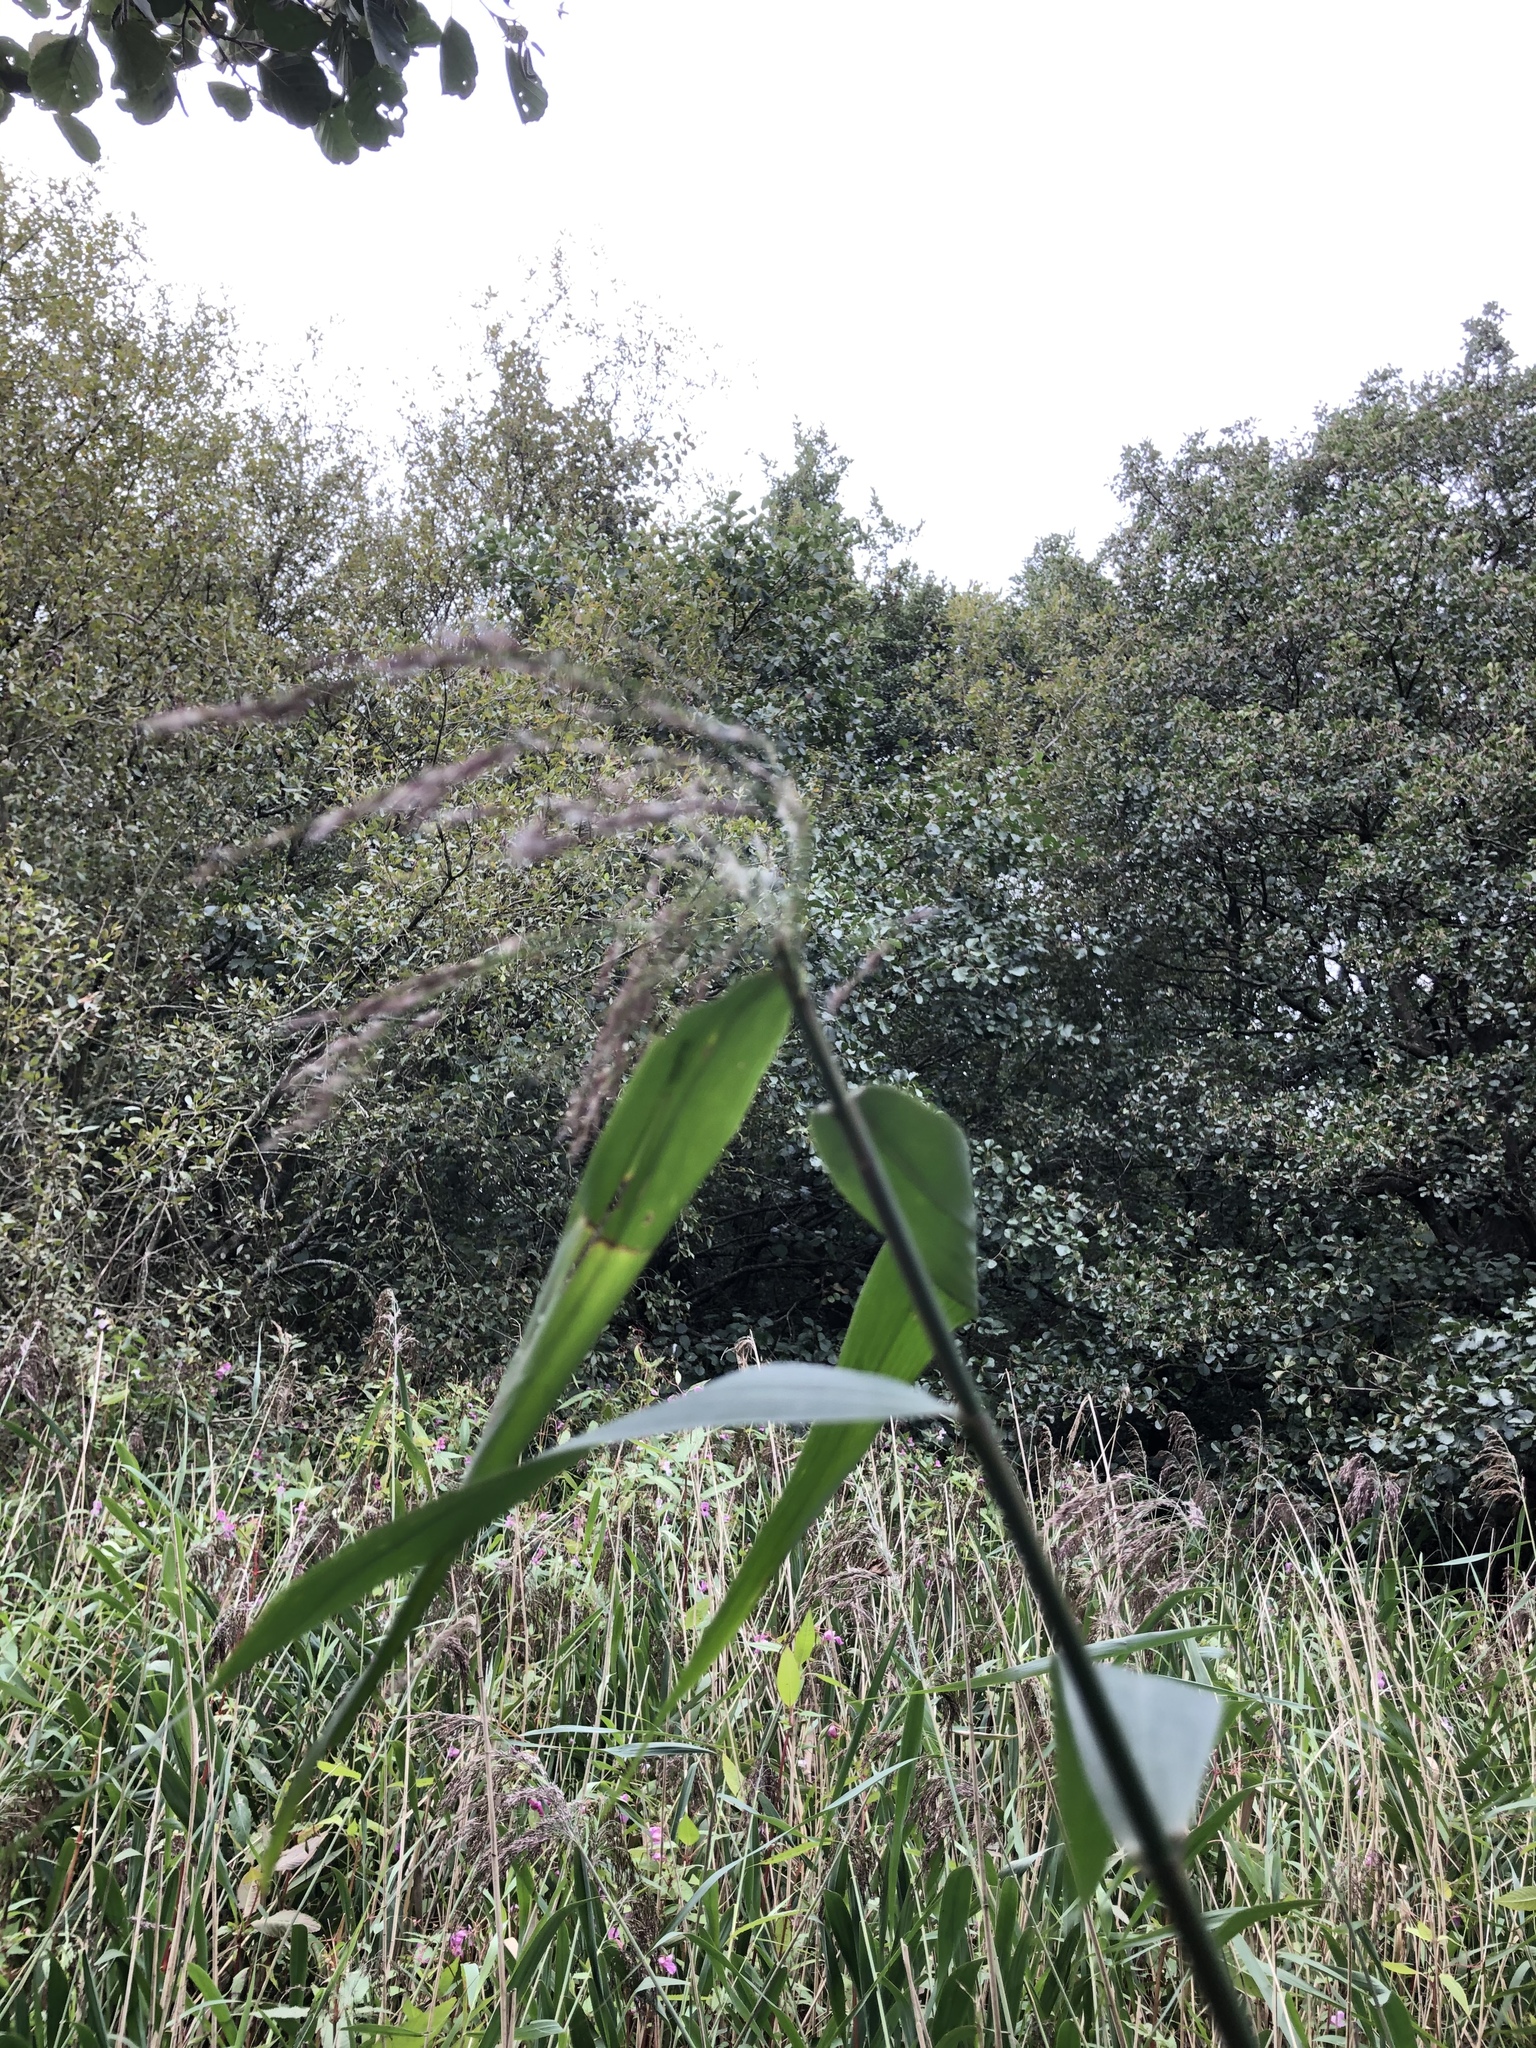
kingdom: Plantae
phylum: Tracheophyta
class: Liliopsida
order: Poales
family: Poaceae
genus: Phragmites
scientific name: Phragmites australis
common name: Common reed
